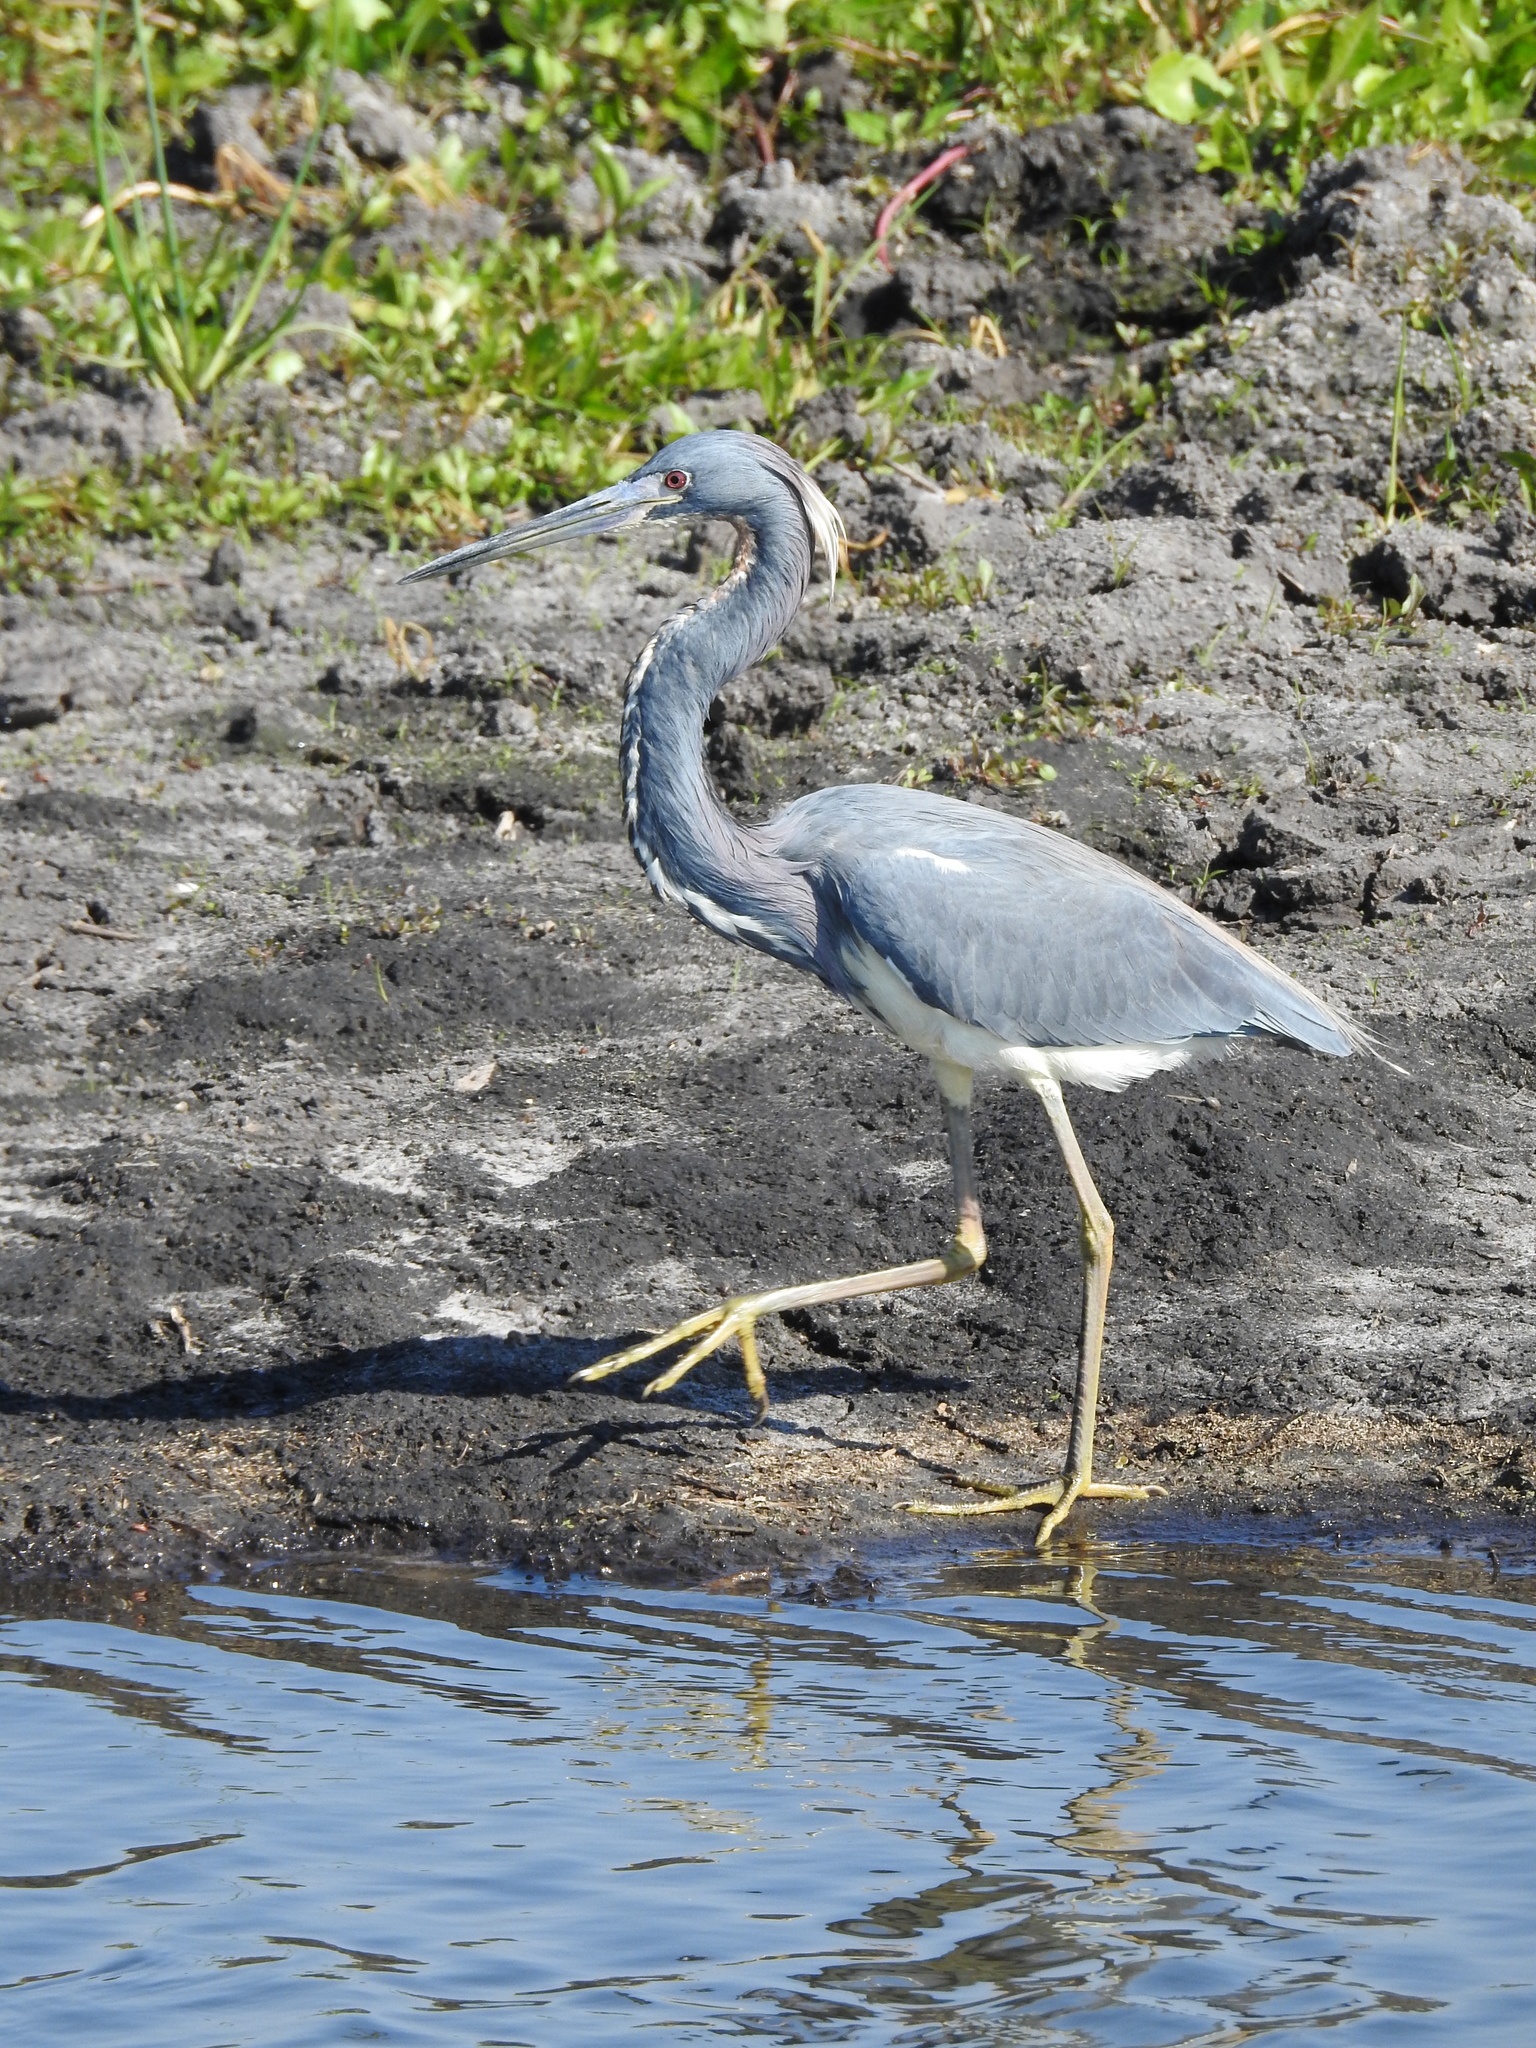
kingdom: Animalia
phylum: Chordata
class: Aves
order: Pelecaniformes
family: Ardeidae
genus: Egretta
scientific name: Egretta tricolor
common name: Tricolored heron
